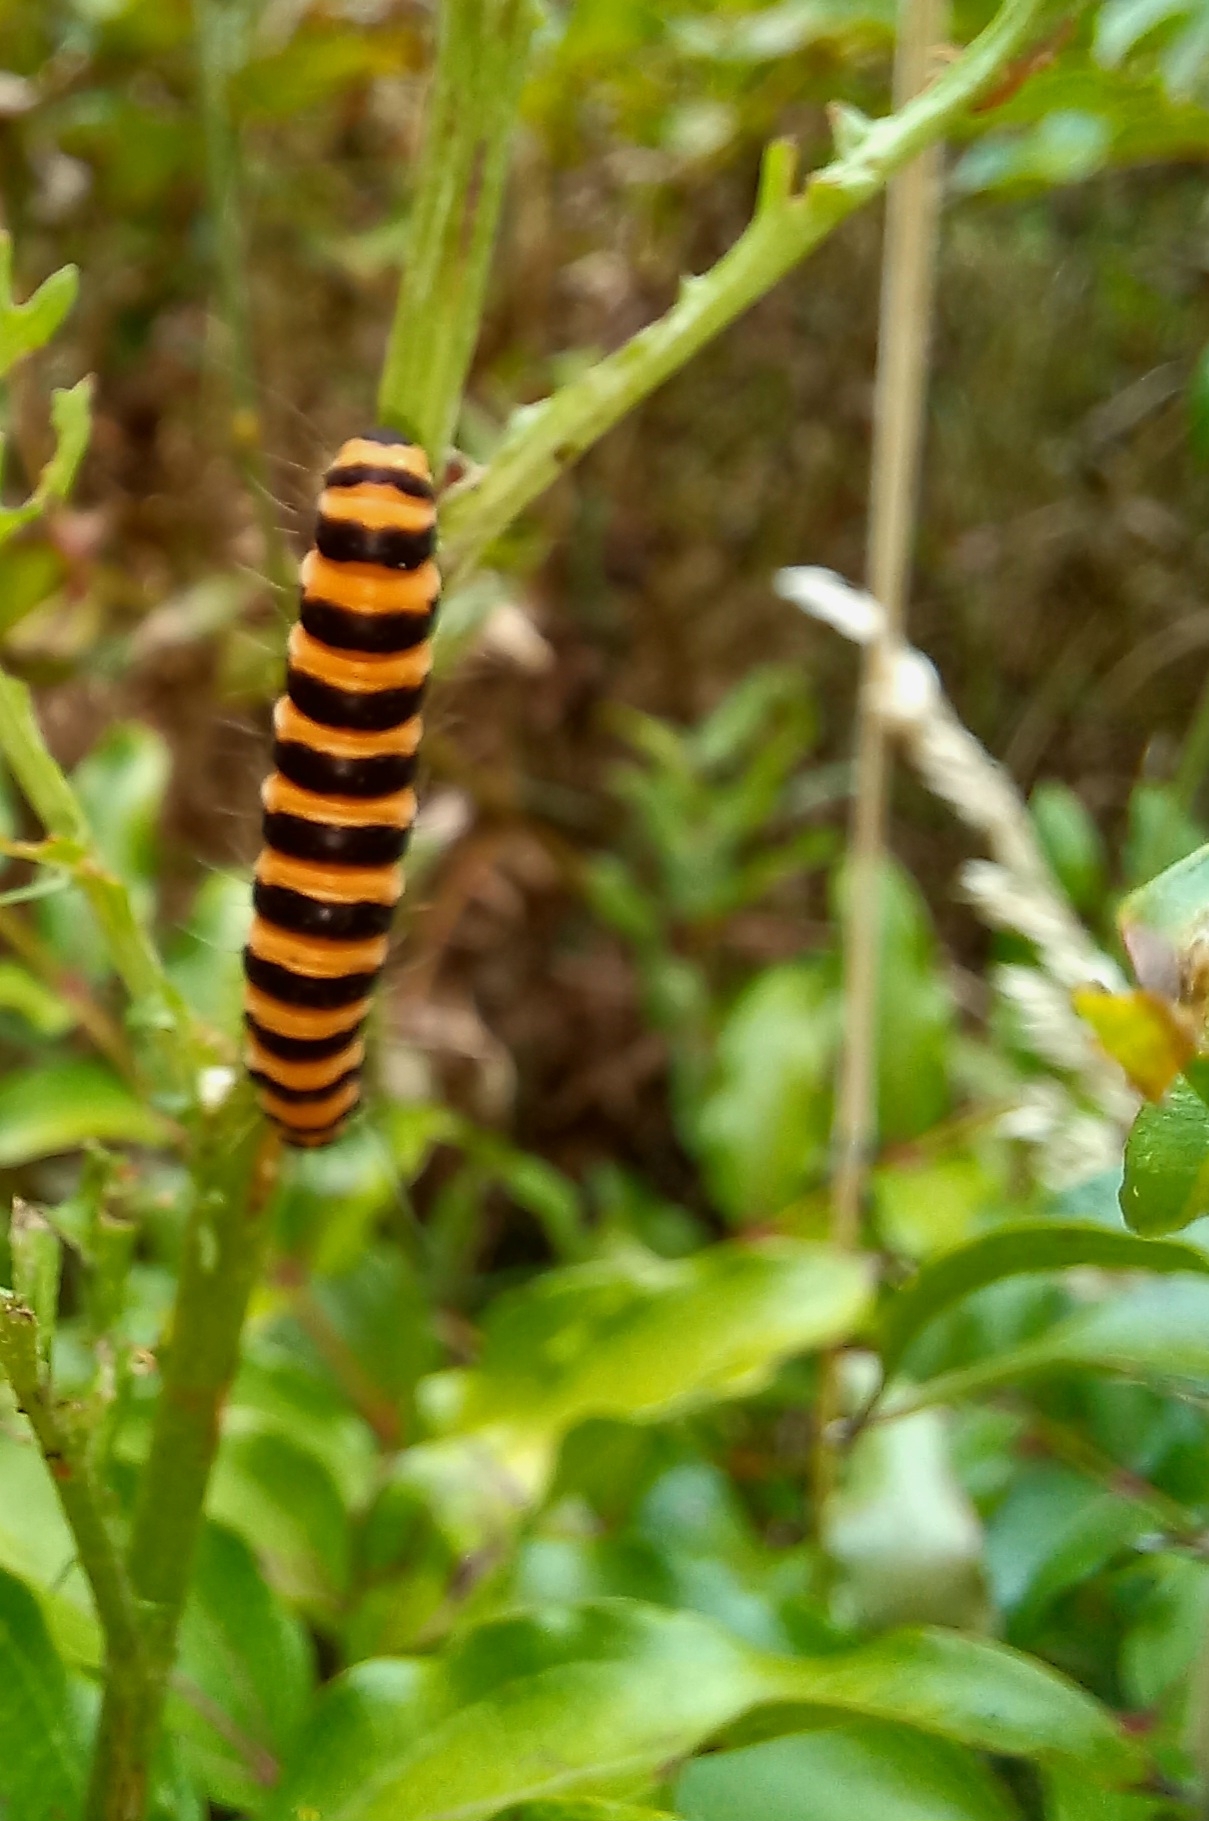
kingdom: Animalia
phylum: Arthropoda
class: Insecta
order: Lepidoptera
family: Erebidae
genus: Tyria
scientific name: Tyria jacobaeae
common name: Cinnabar
